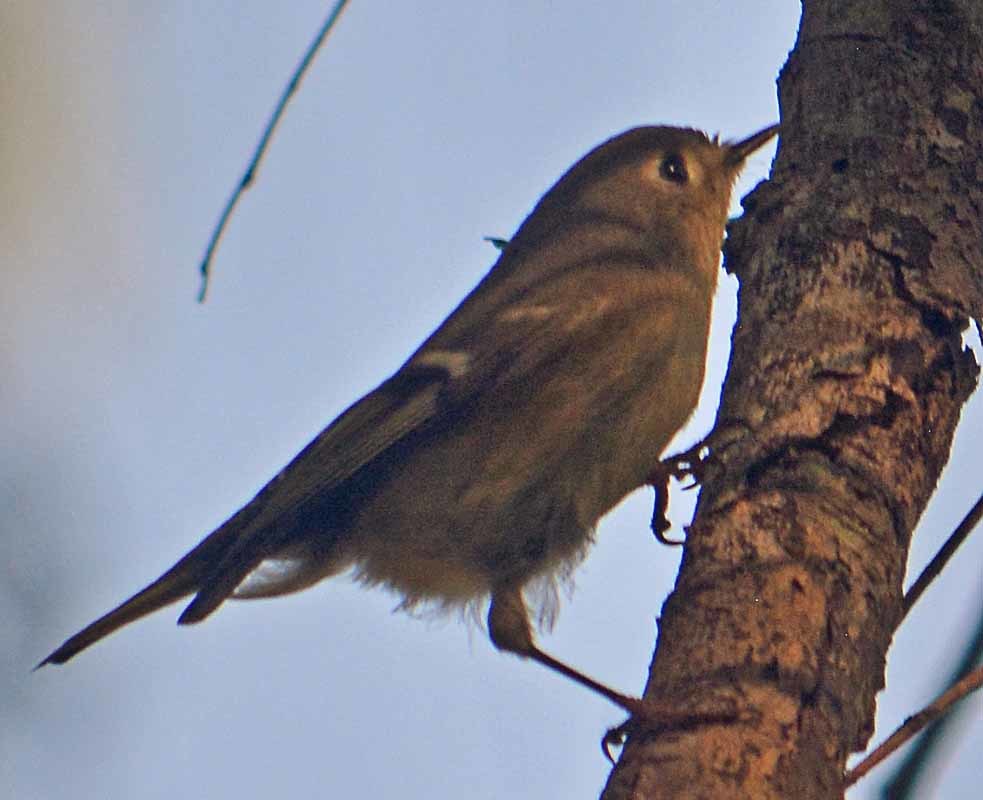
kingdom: Animalia
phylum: Chordata
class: Aves
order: Passeriformes
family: Regulidae
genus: Regulus
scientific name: Regulus calendula
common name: Ruby-crowned kinglet
